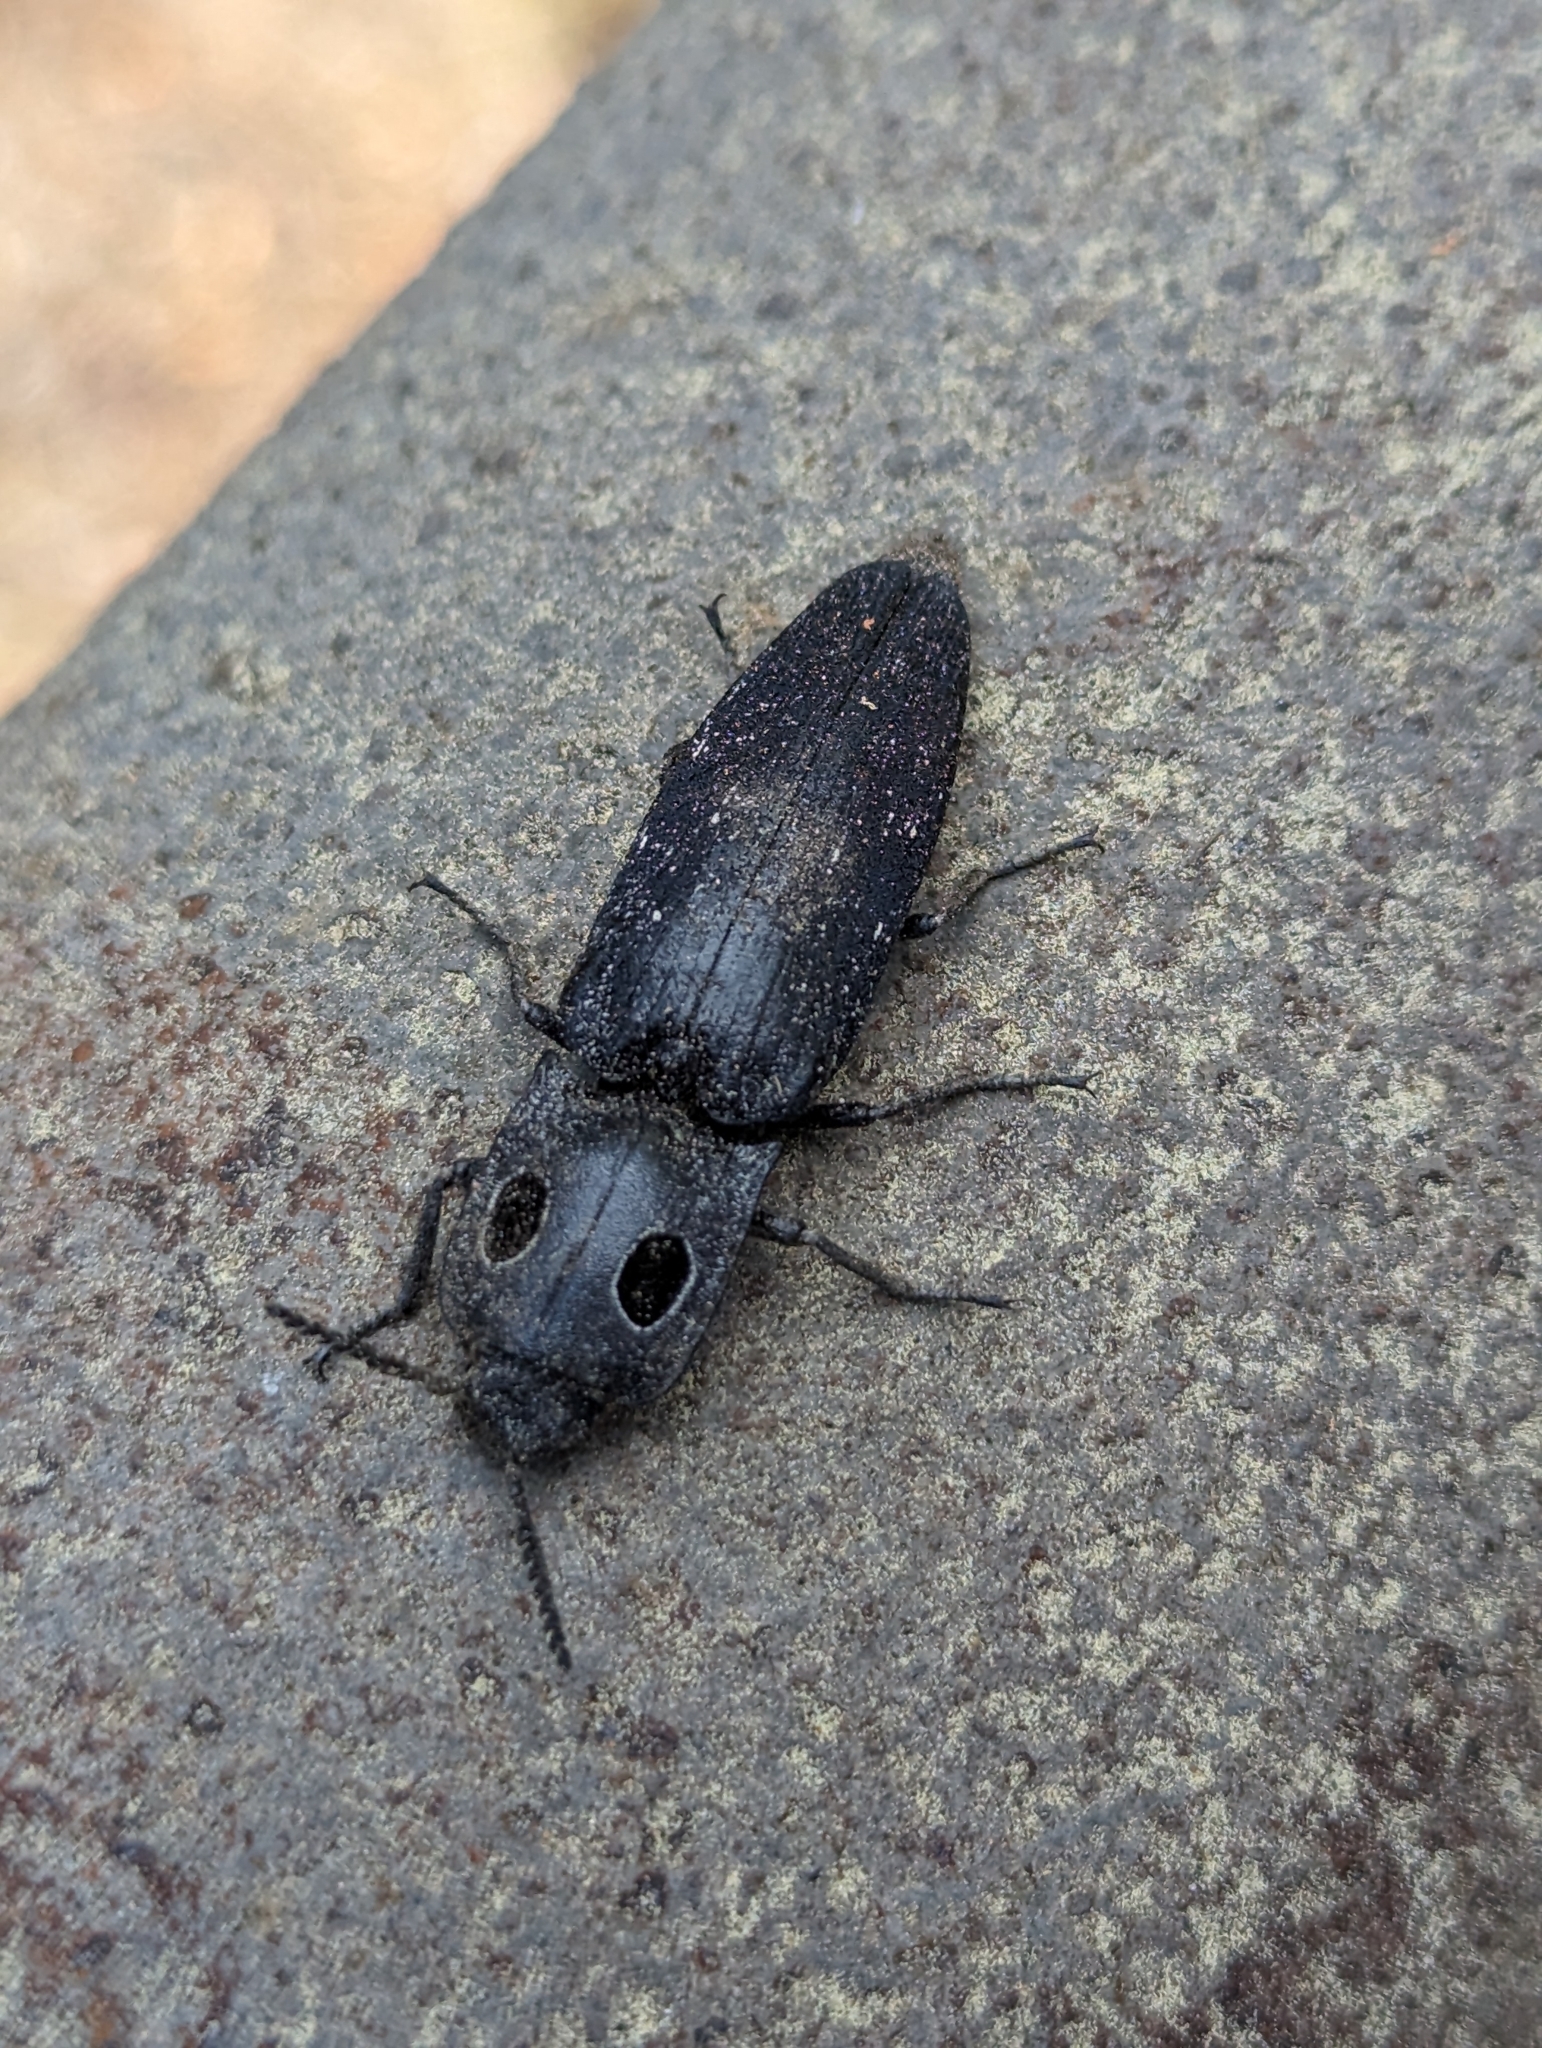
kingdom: Animalia
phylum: Arthropoda
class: Insecta
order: Coleoptera
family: Elateridae
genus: Alaus
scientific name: Alaus melanops
